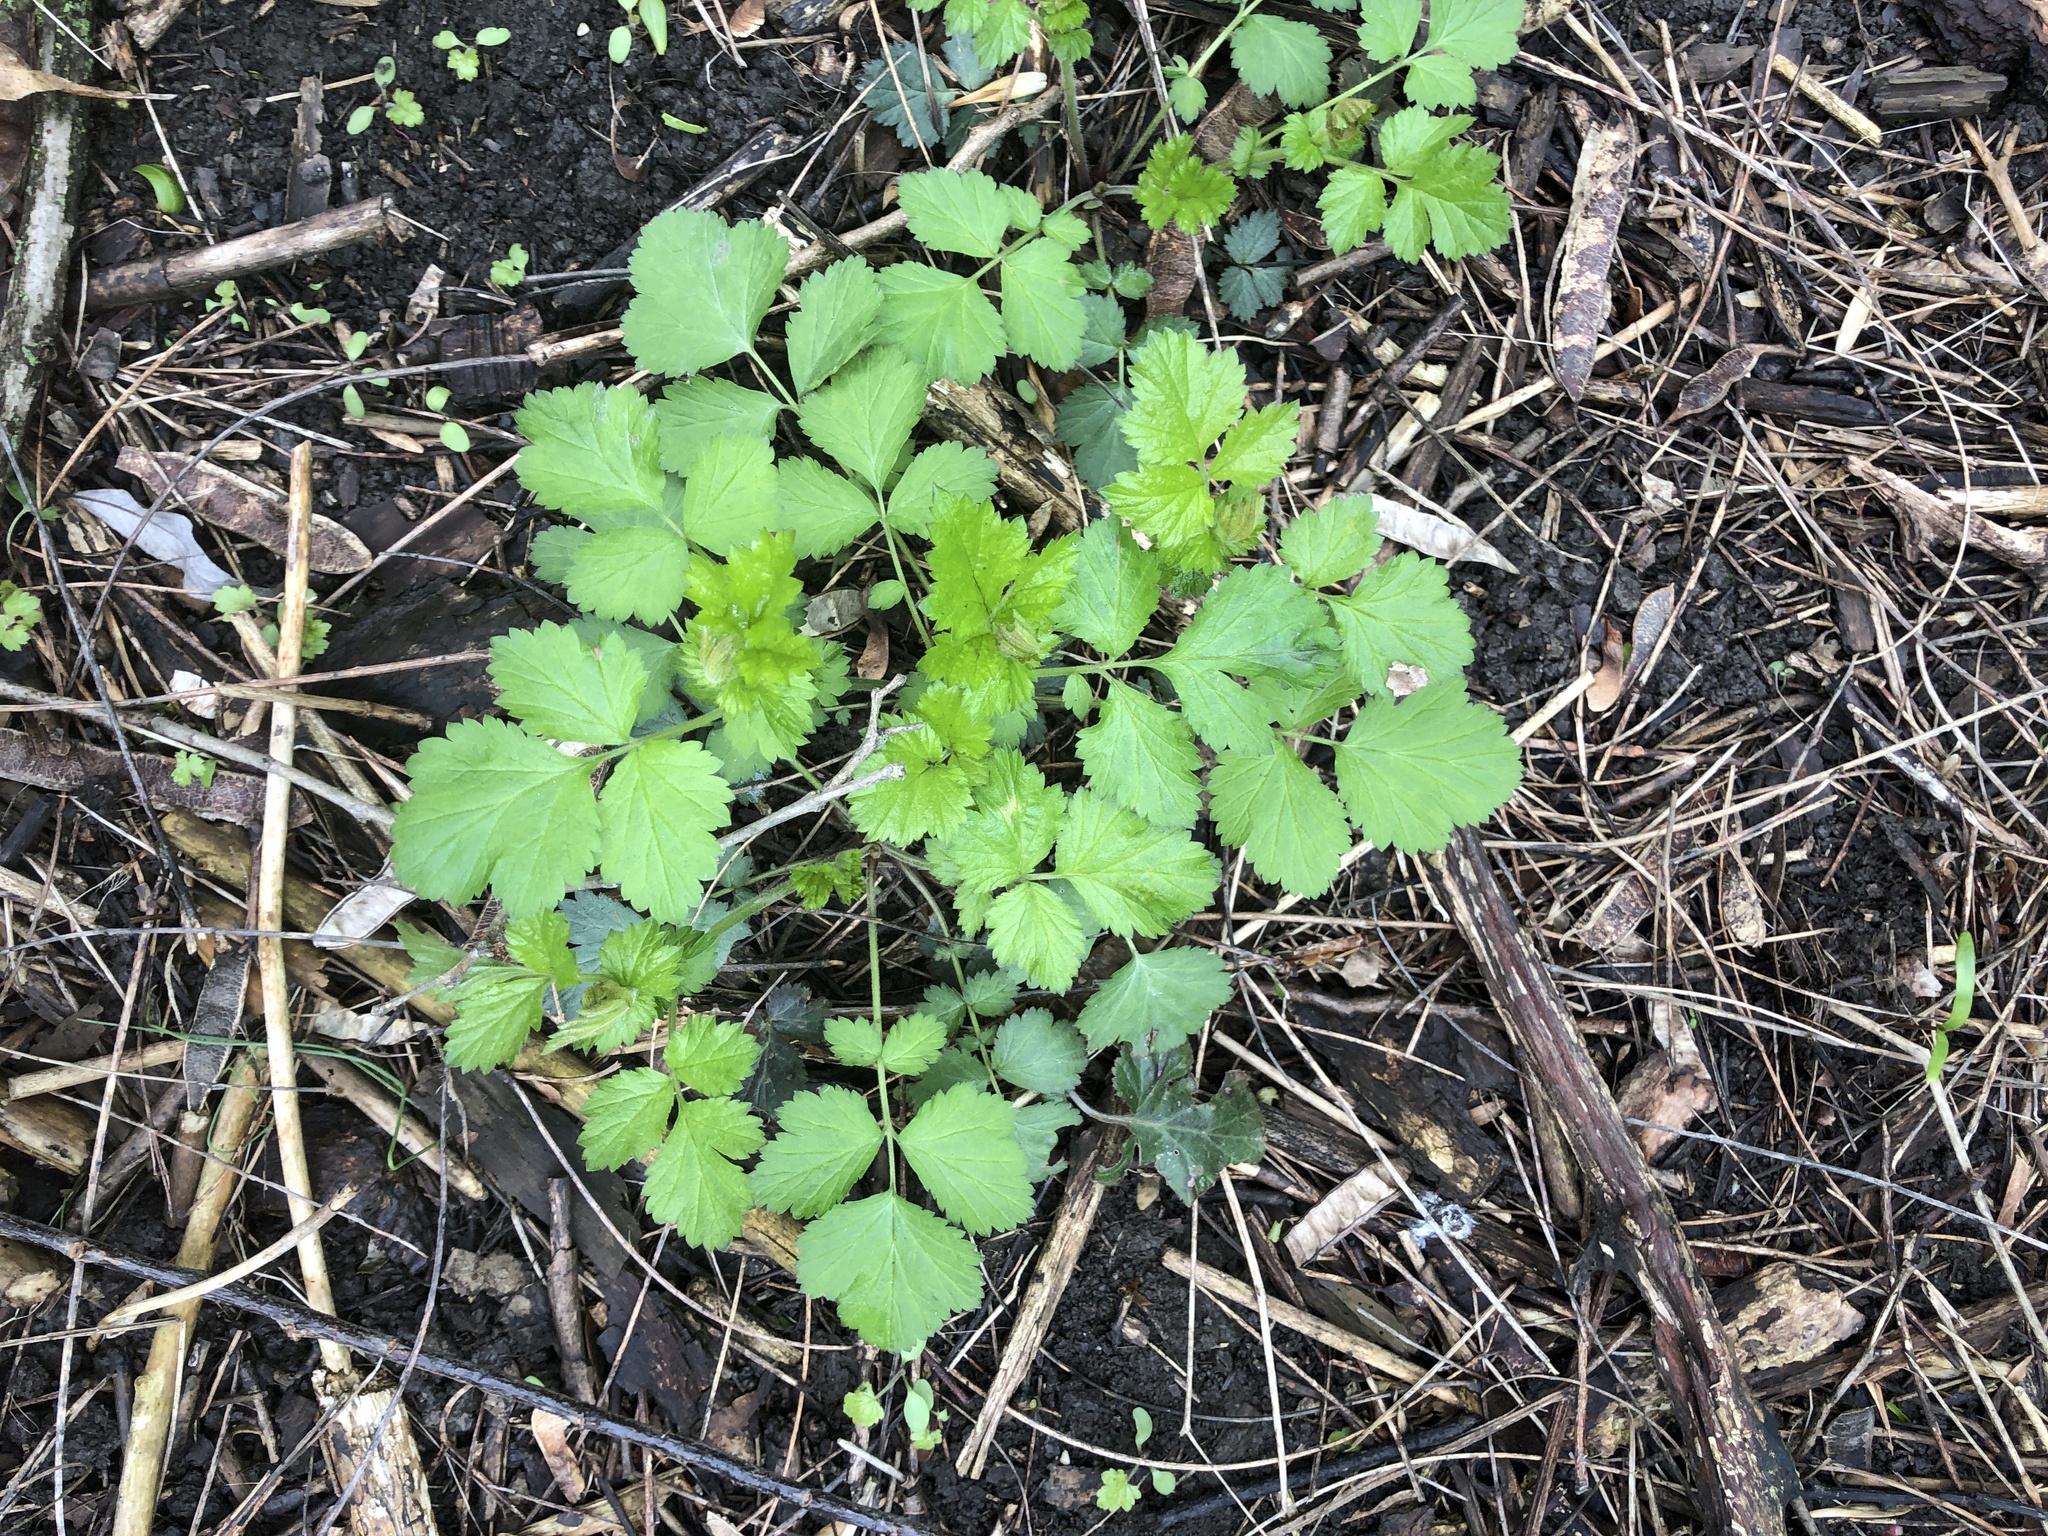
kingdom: Plantae
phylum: Tracheophyta
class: Magnoliopsida
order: Rosales
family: Rosaceae
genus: Geum
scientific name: Geum urbanum
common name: Wood avens
